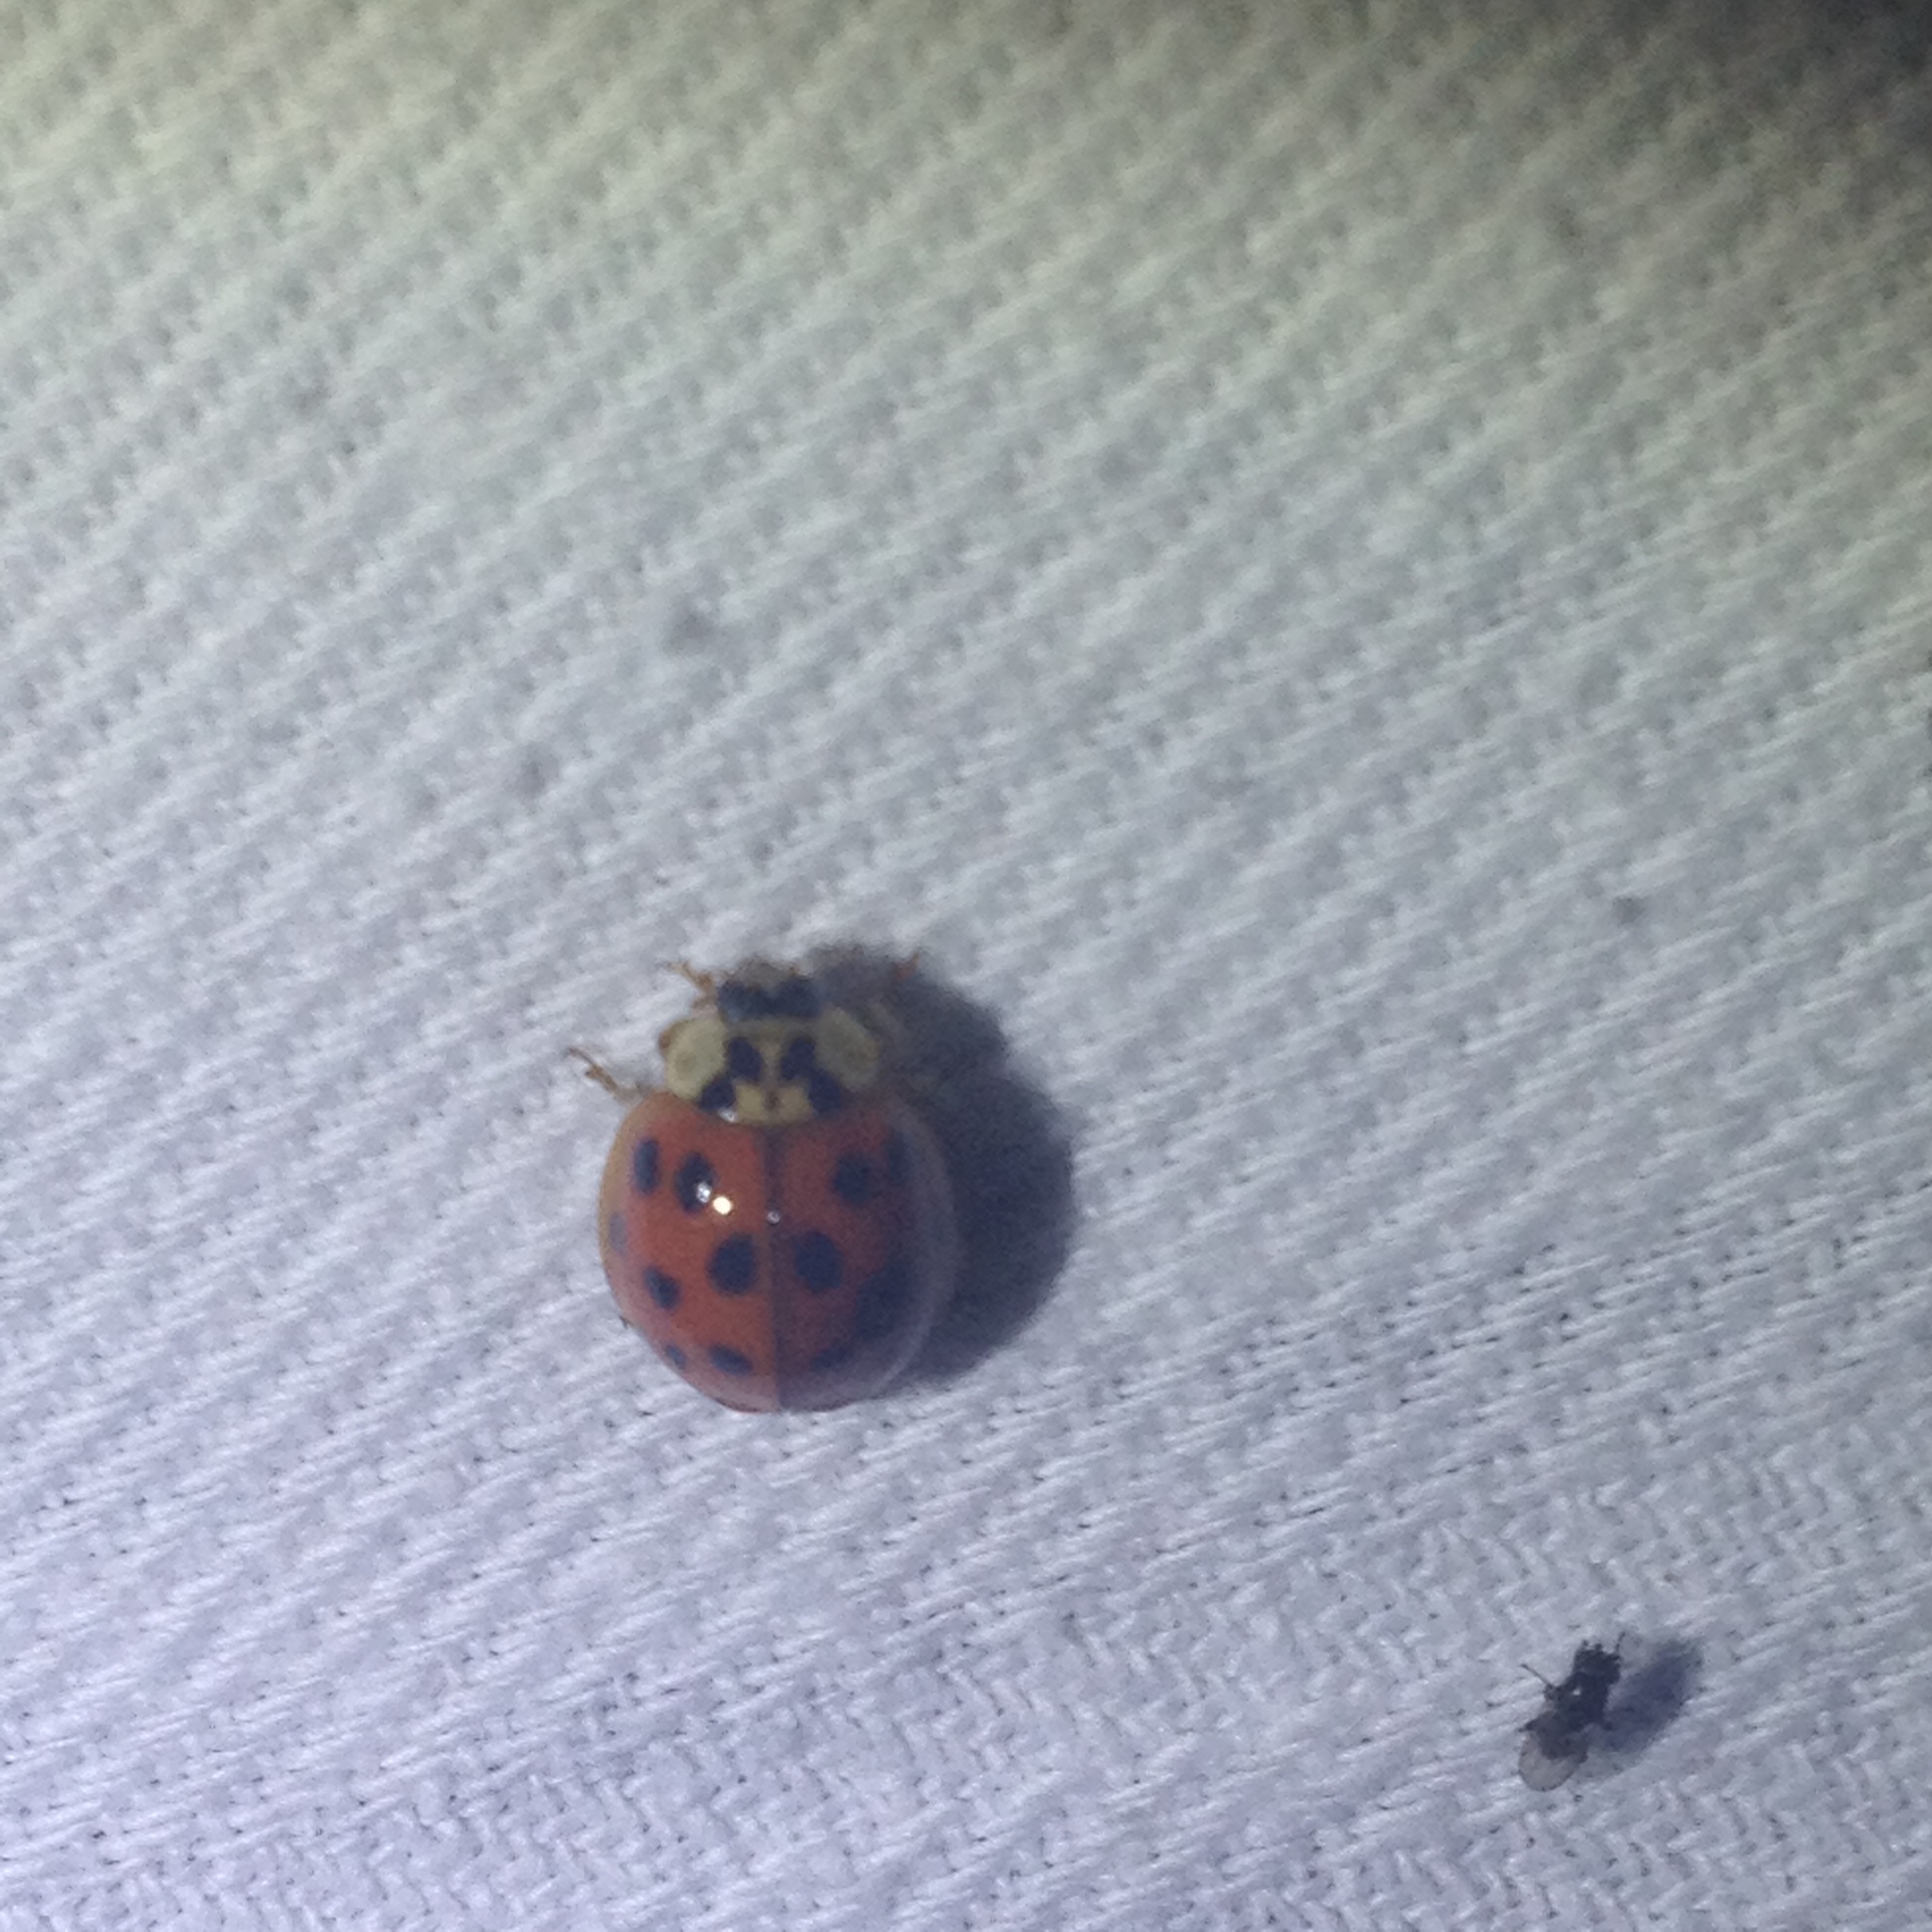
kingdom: Animalia
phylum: Arthropoda
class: Insecta
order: Coleoptera
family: Coccinellidae
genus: Harmonia
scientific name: Harmonia axyridis
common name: Harlequin ladybird
